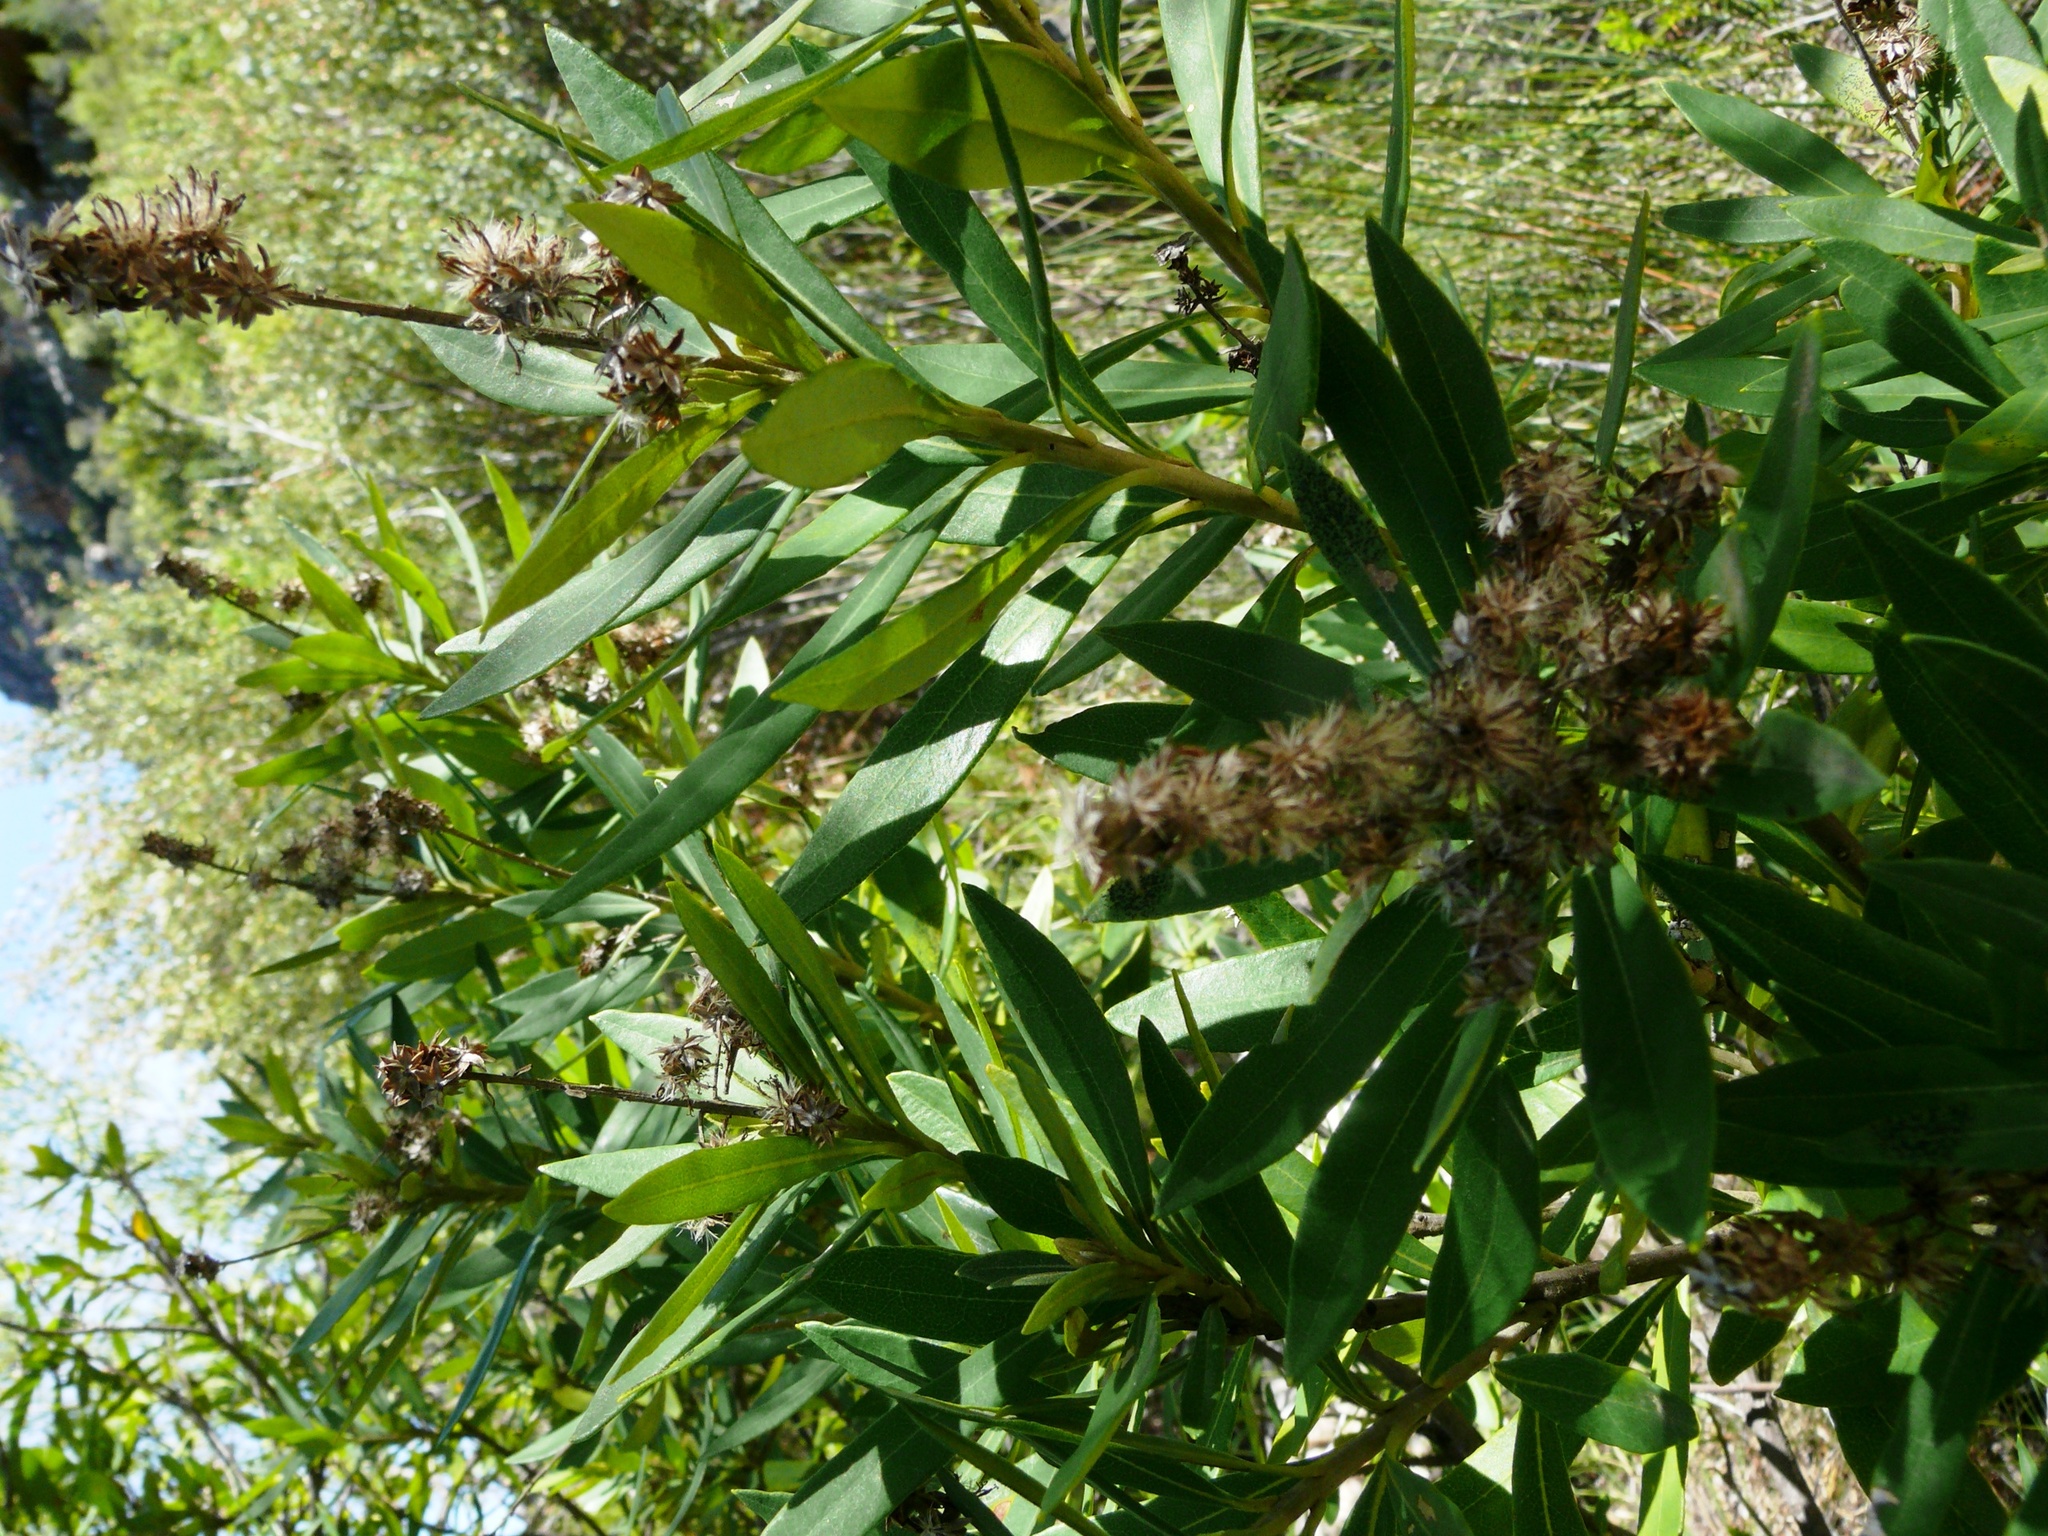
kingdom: Plantae
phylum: Tracheophyta
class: Magnoliopsida
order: Asterales
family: Asteraceae
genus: Brachylaena
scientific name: Brachylaena neriifolia
